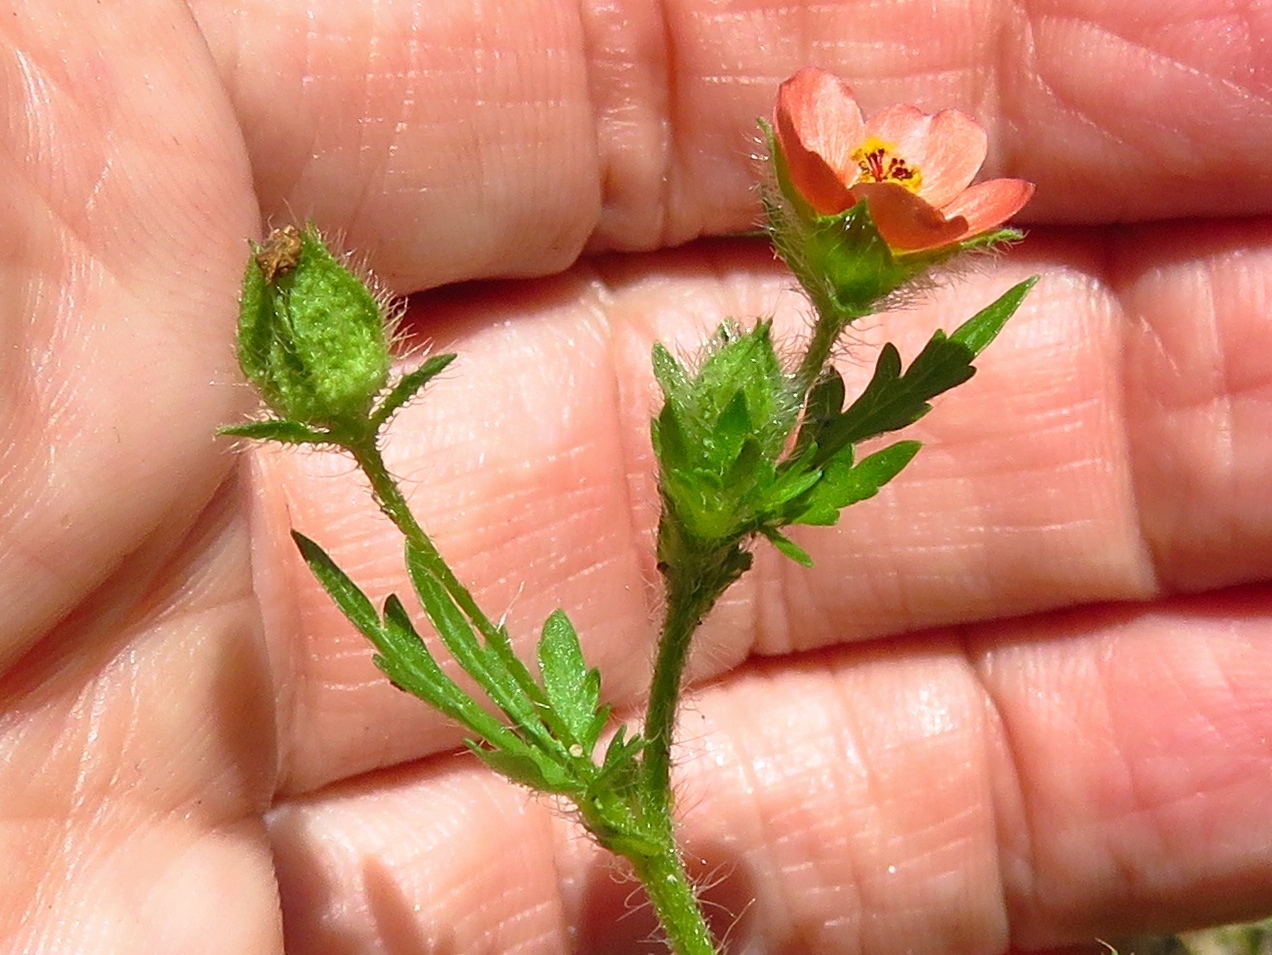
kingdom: Plantae
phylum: Tracheophyta
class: Magnoliopsida
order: Malvales
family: Malvaceae
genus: Modiola
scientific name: Modiola caroliniana
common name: Carolina bristlemallow
